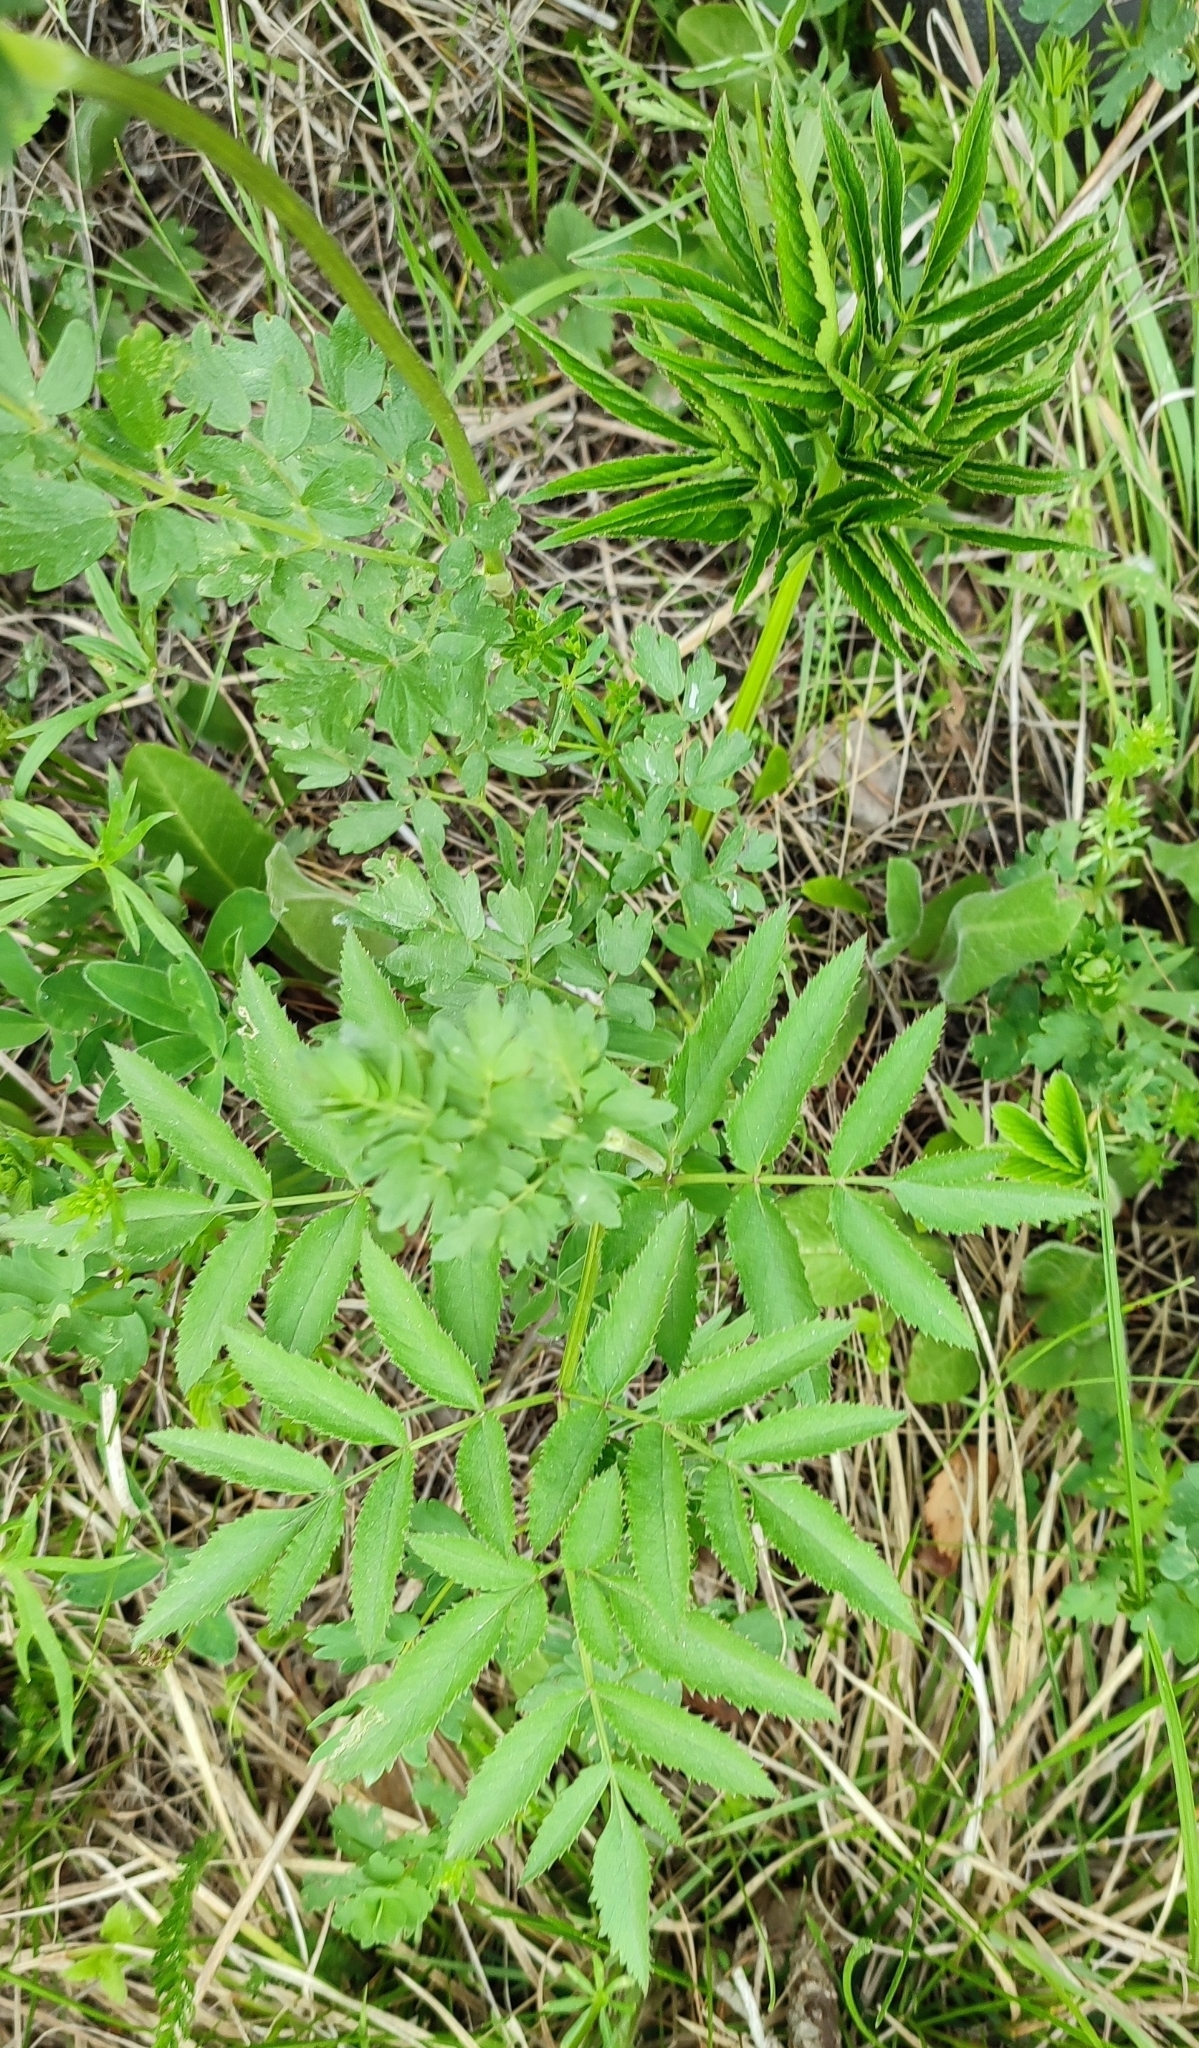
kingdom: Plantae
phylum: Tracheophyta
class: Magnoliopsida
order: Apiales
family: Apiaceae
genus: Angelica
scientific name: Angelica sylvestris
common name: Wild angelica
